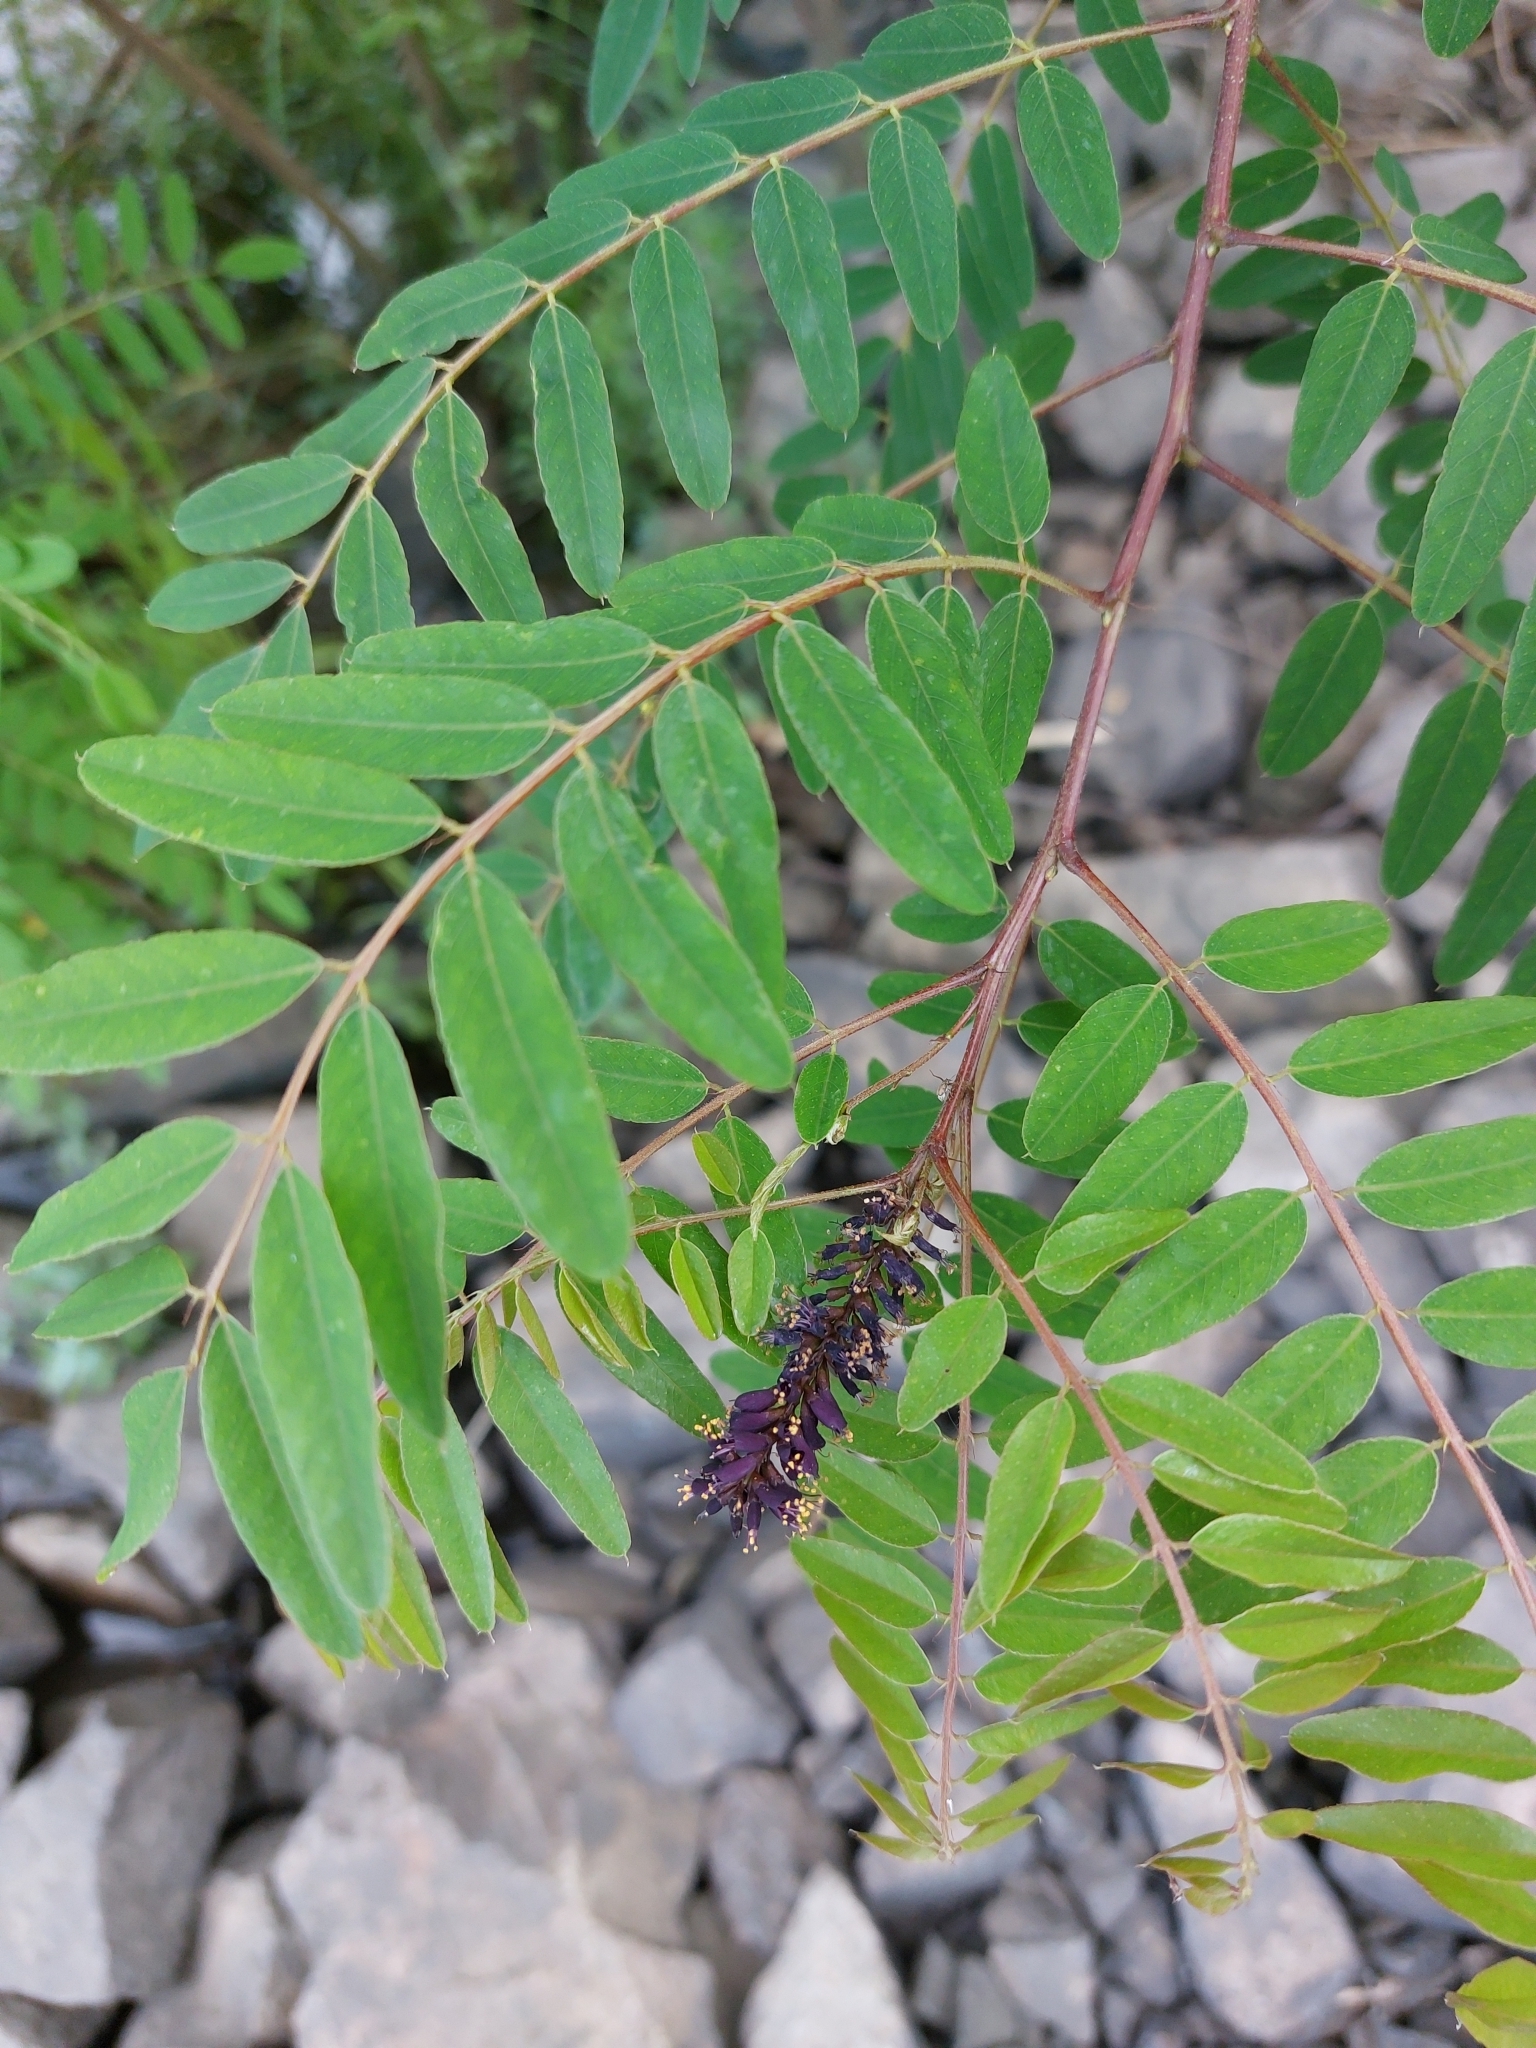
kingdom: Plantae
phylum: Tracheophyta
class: Magnoliopsida
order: Fabales
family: Fabaceae
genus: Amorpha
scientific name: Amorpha fruticosa
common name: False indigo
